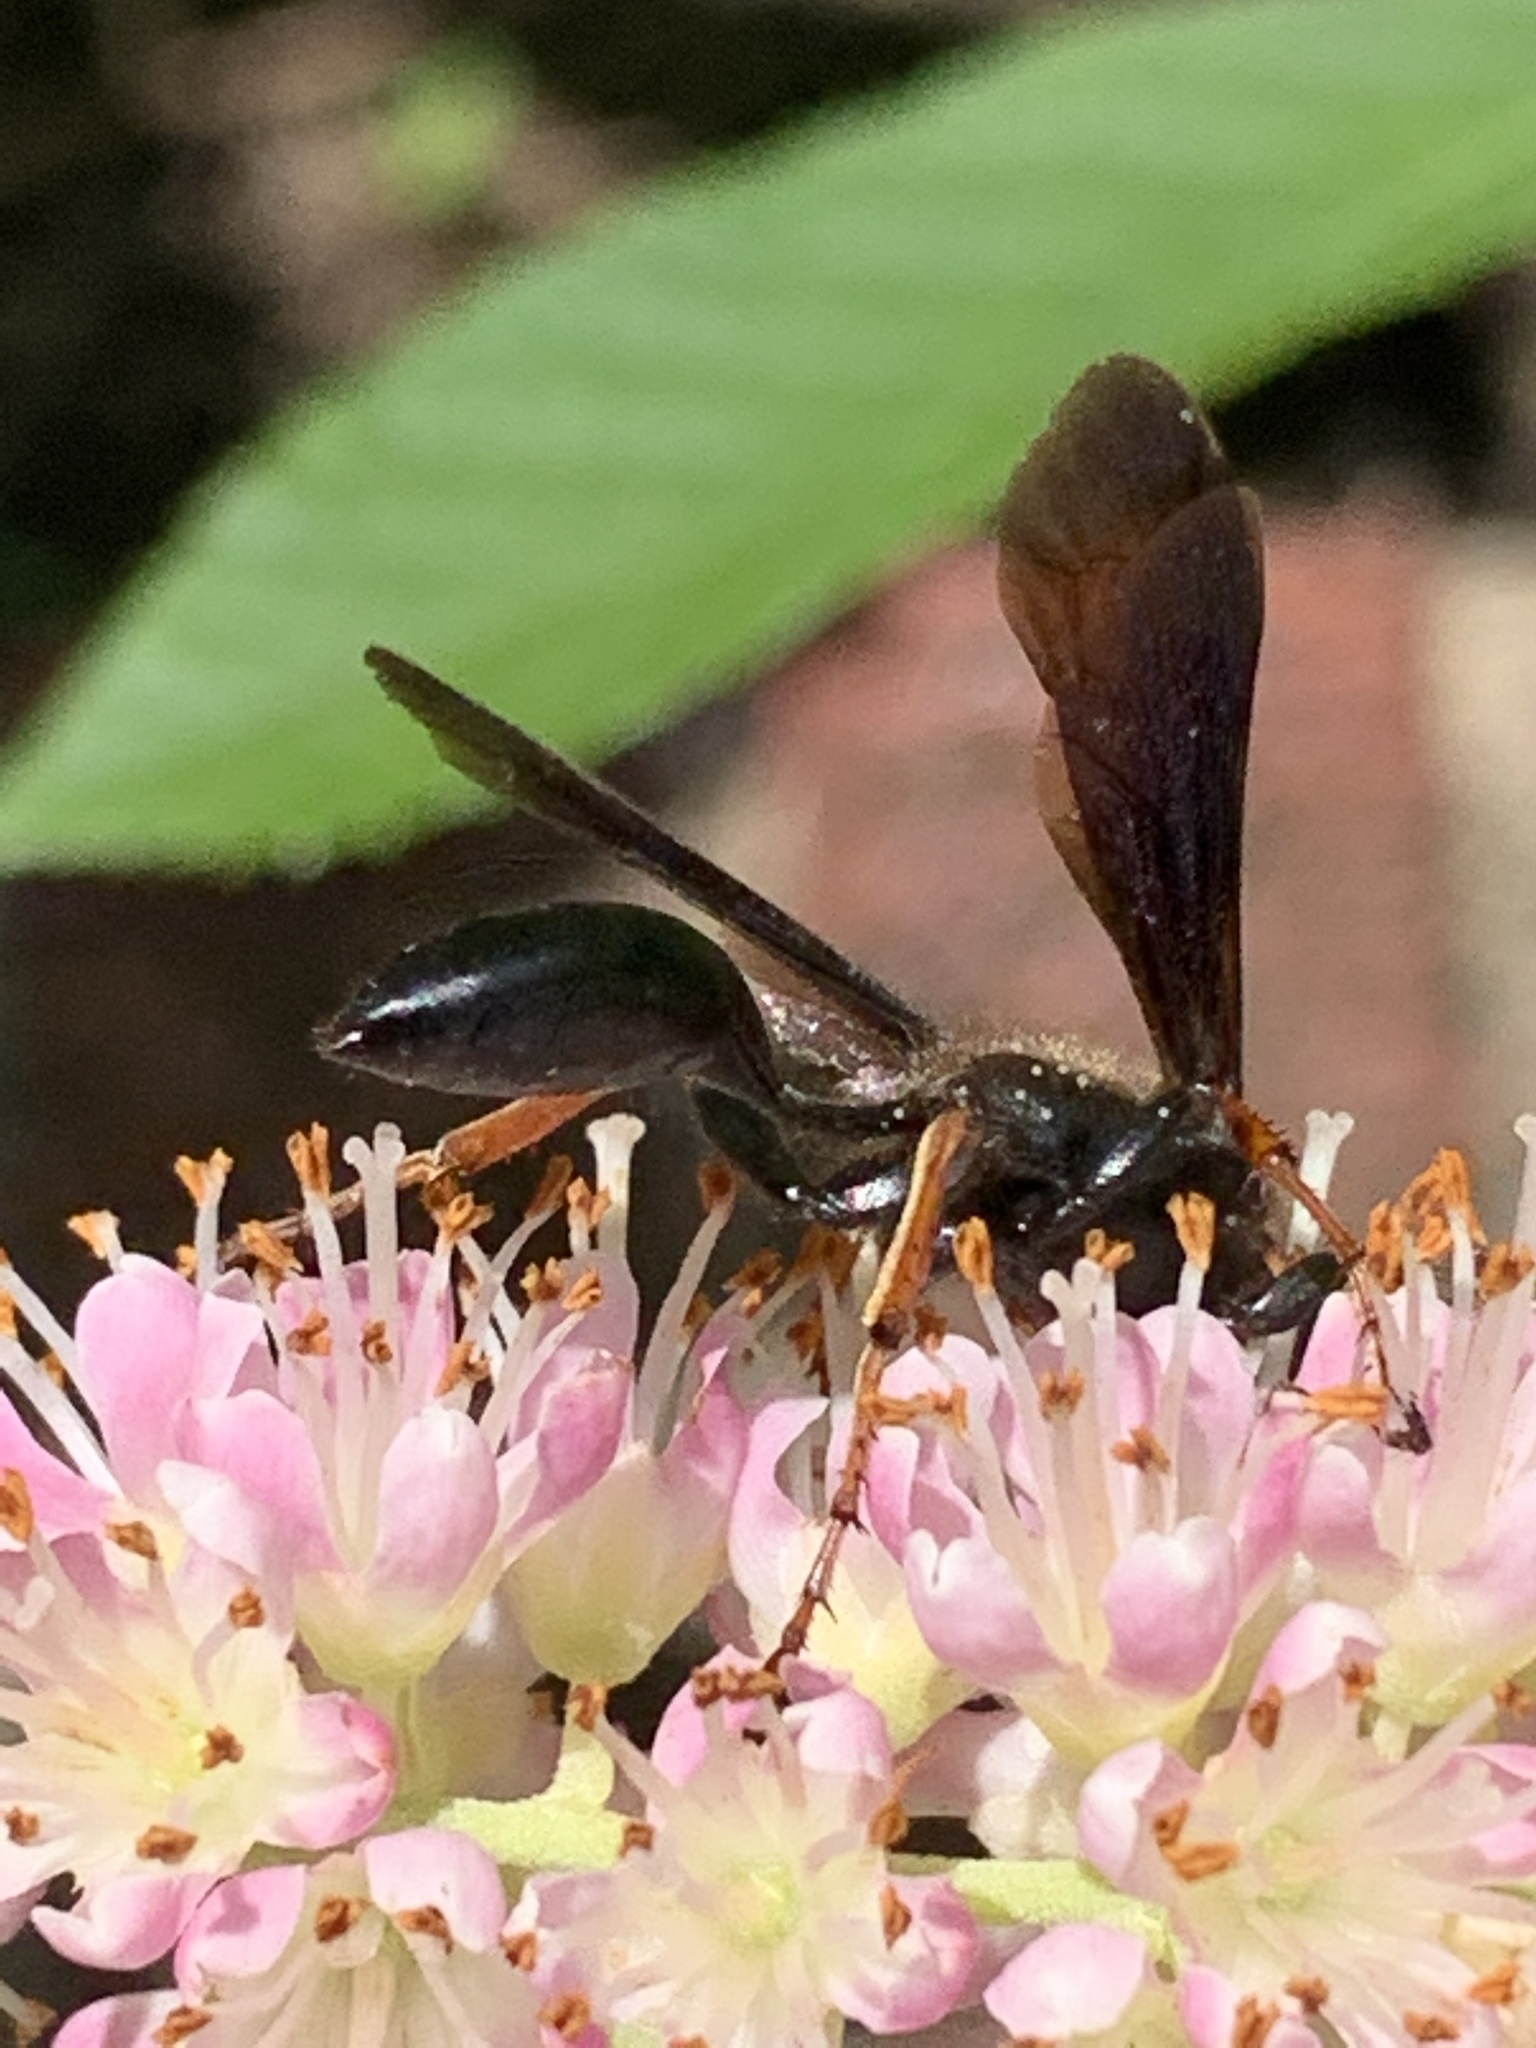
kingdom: Animalia
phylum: Arthropoda
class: Insecta
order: Hymenoptera
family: Sphecidae
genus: Isodontia
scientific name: Isodontia auripes
